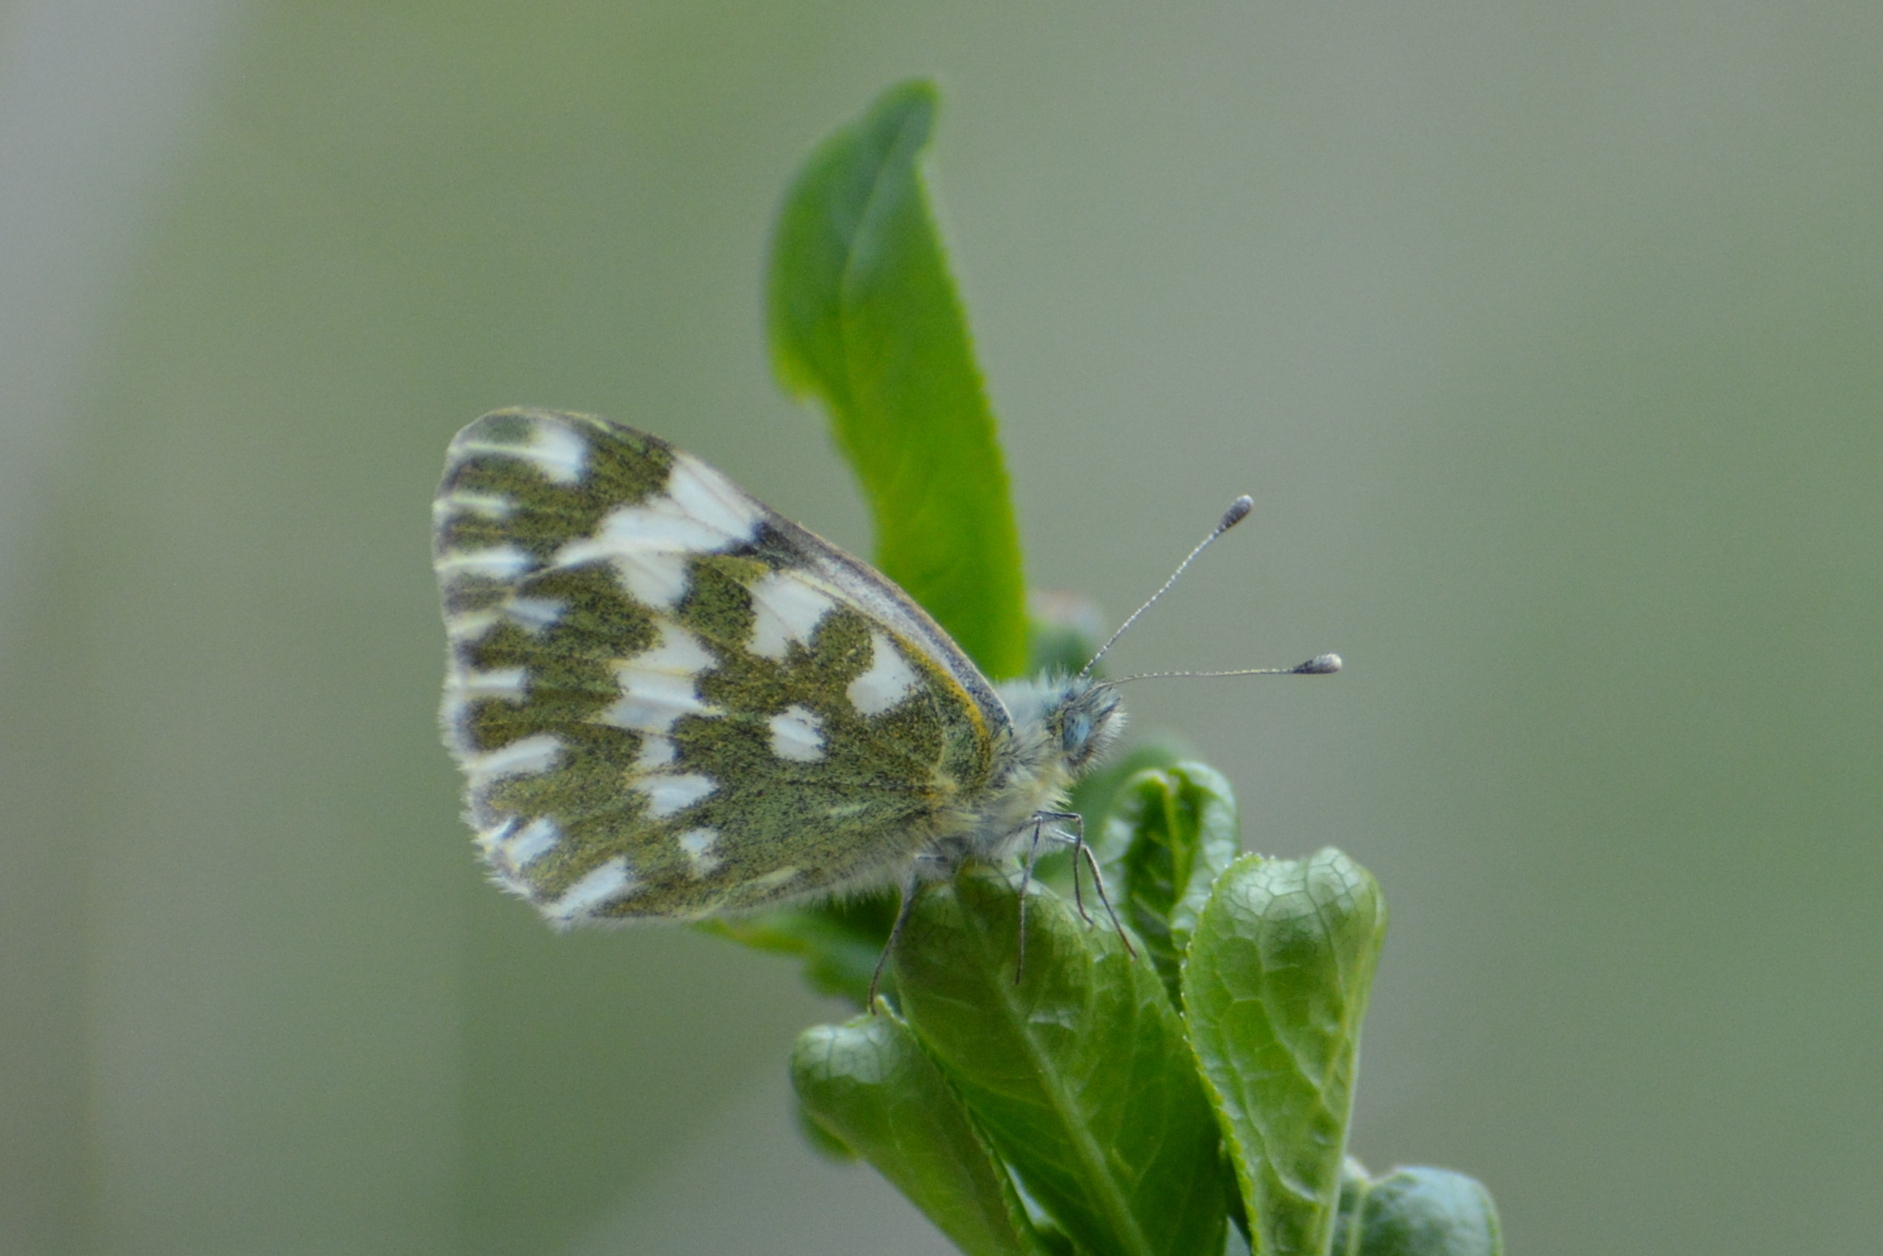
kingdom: Animalia
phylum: Arthropoda
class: Insecta
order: Lepidoptera
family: Pieridae
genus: Pontia
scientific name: Pontia edusa
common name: Eastern bath white
